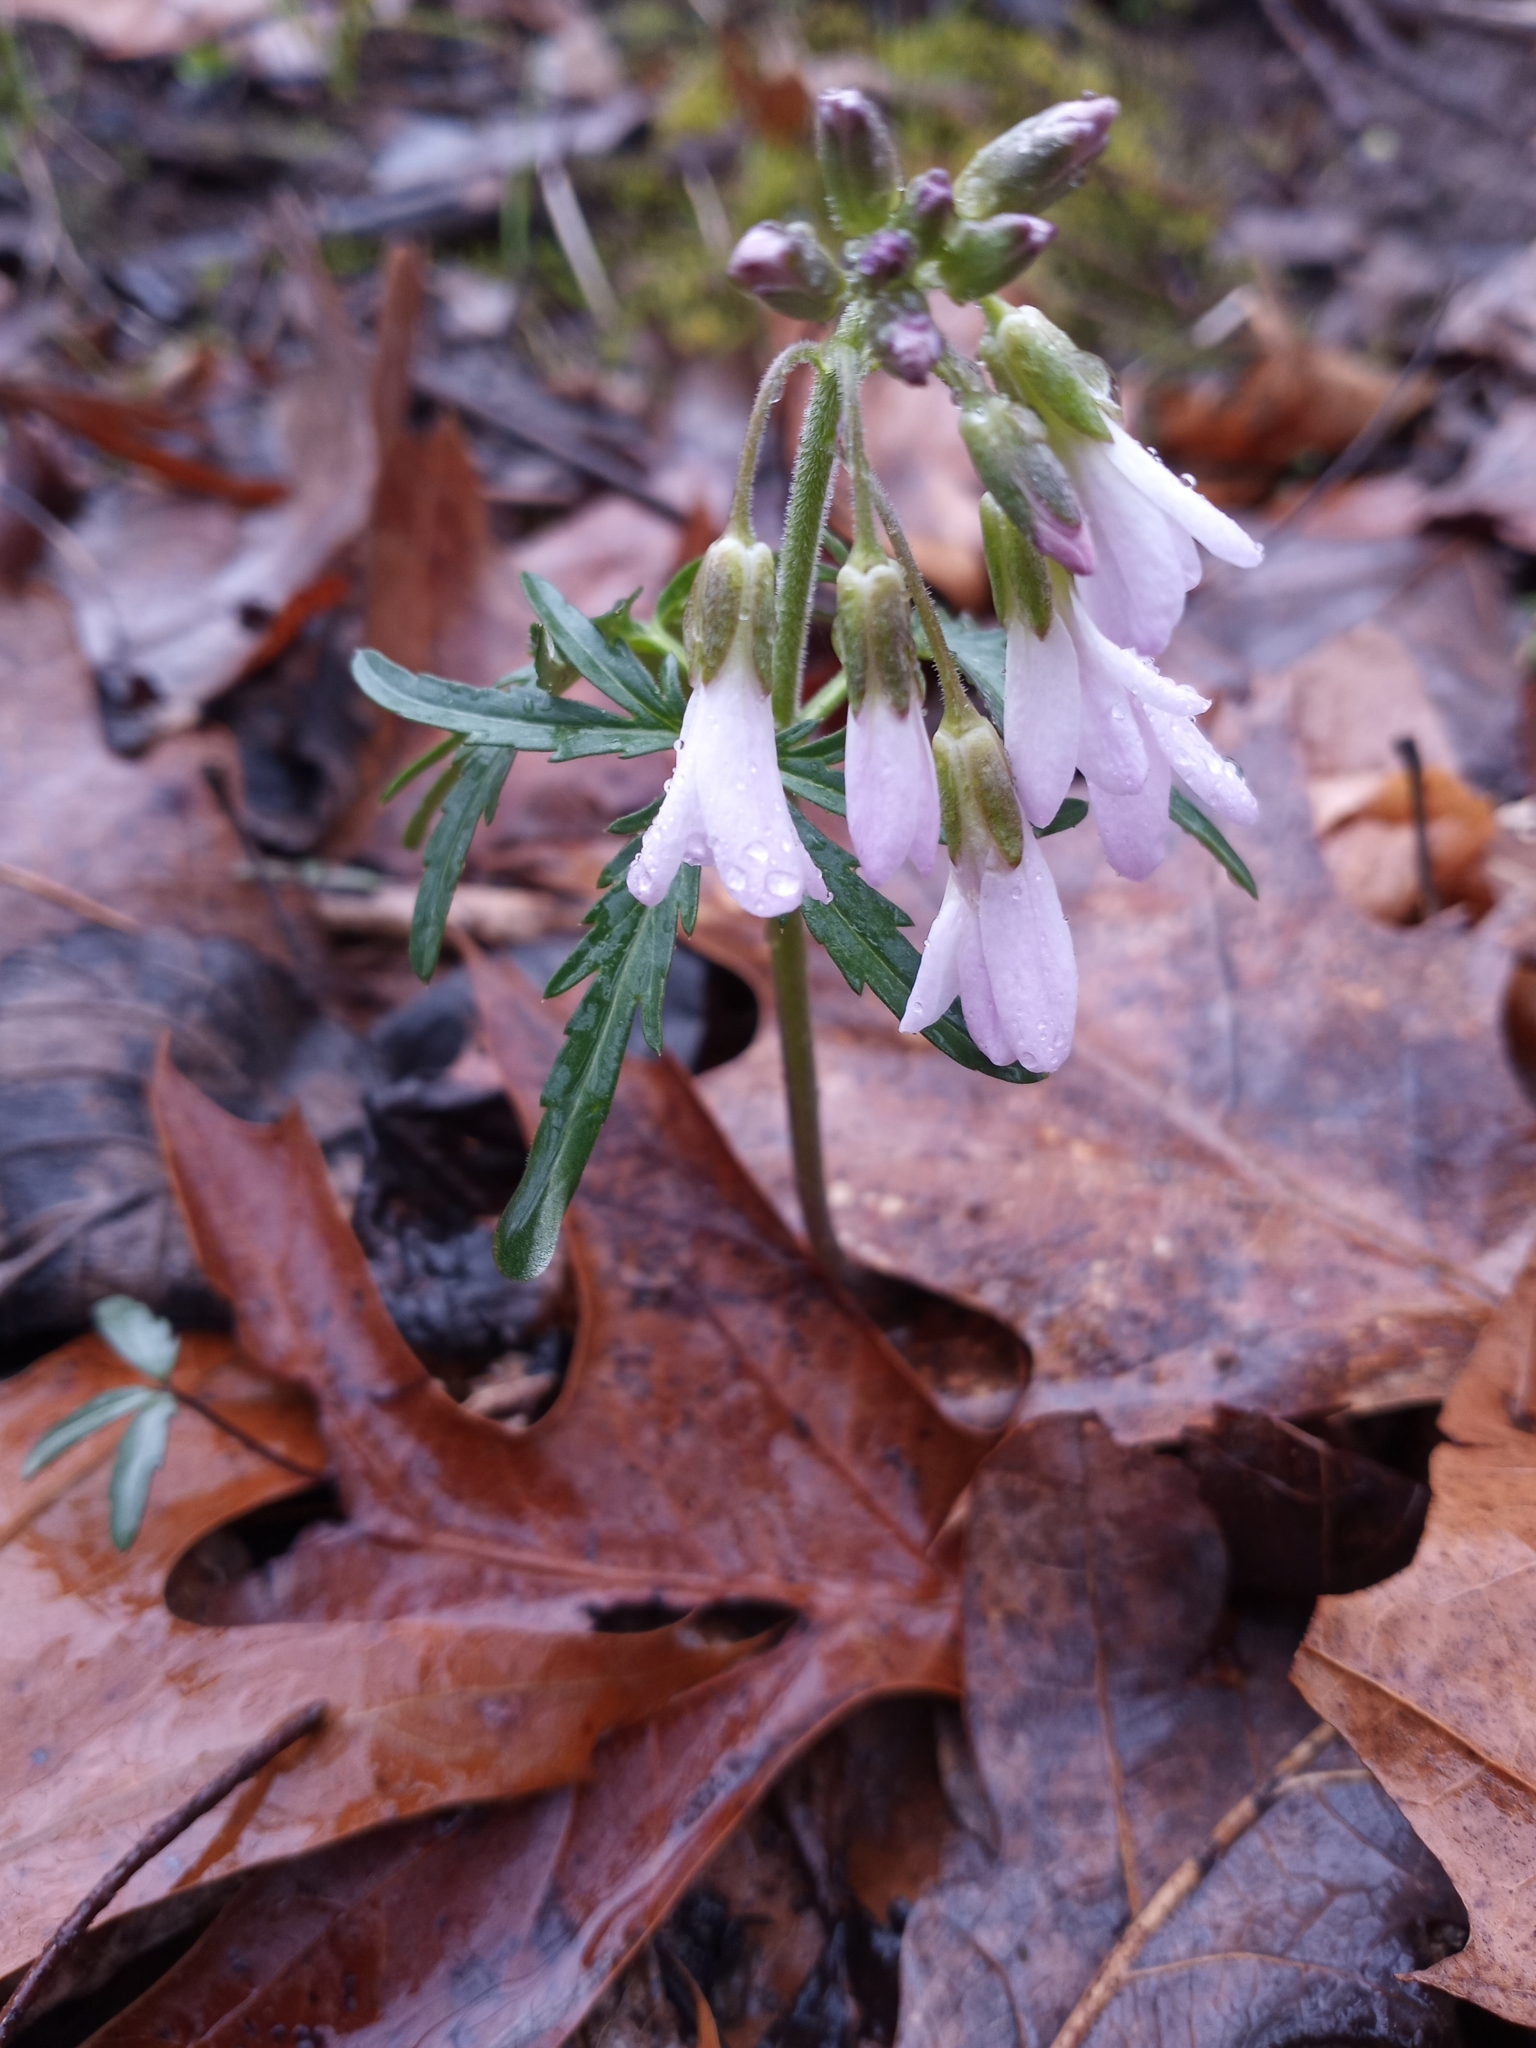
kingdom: Plantae
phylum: Tracheophyta
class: Magnoliopsida
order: Brassicales
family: Brassicaceae
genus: Cardamine
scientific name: Cardamine concatenata
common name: Cut-leaf toothcup
